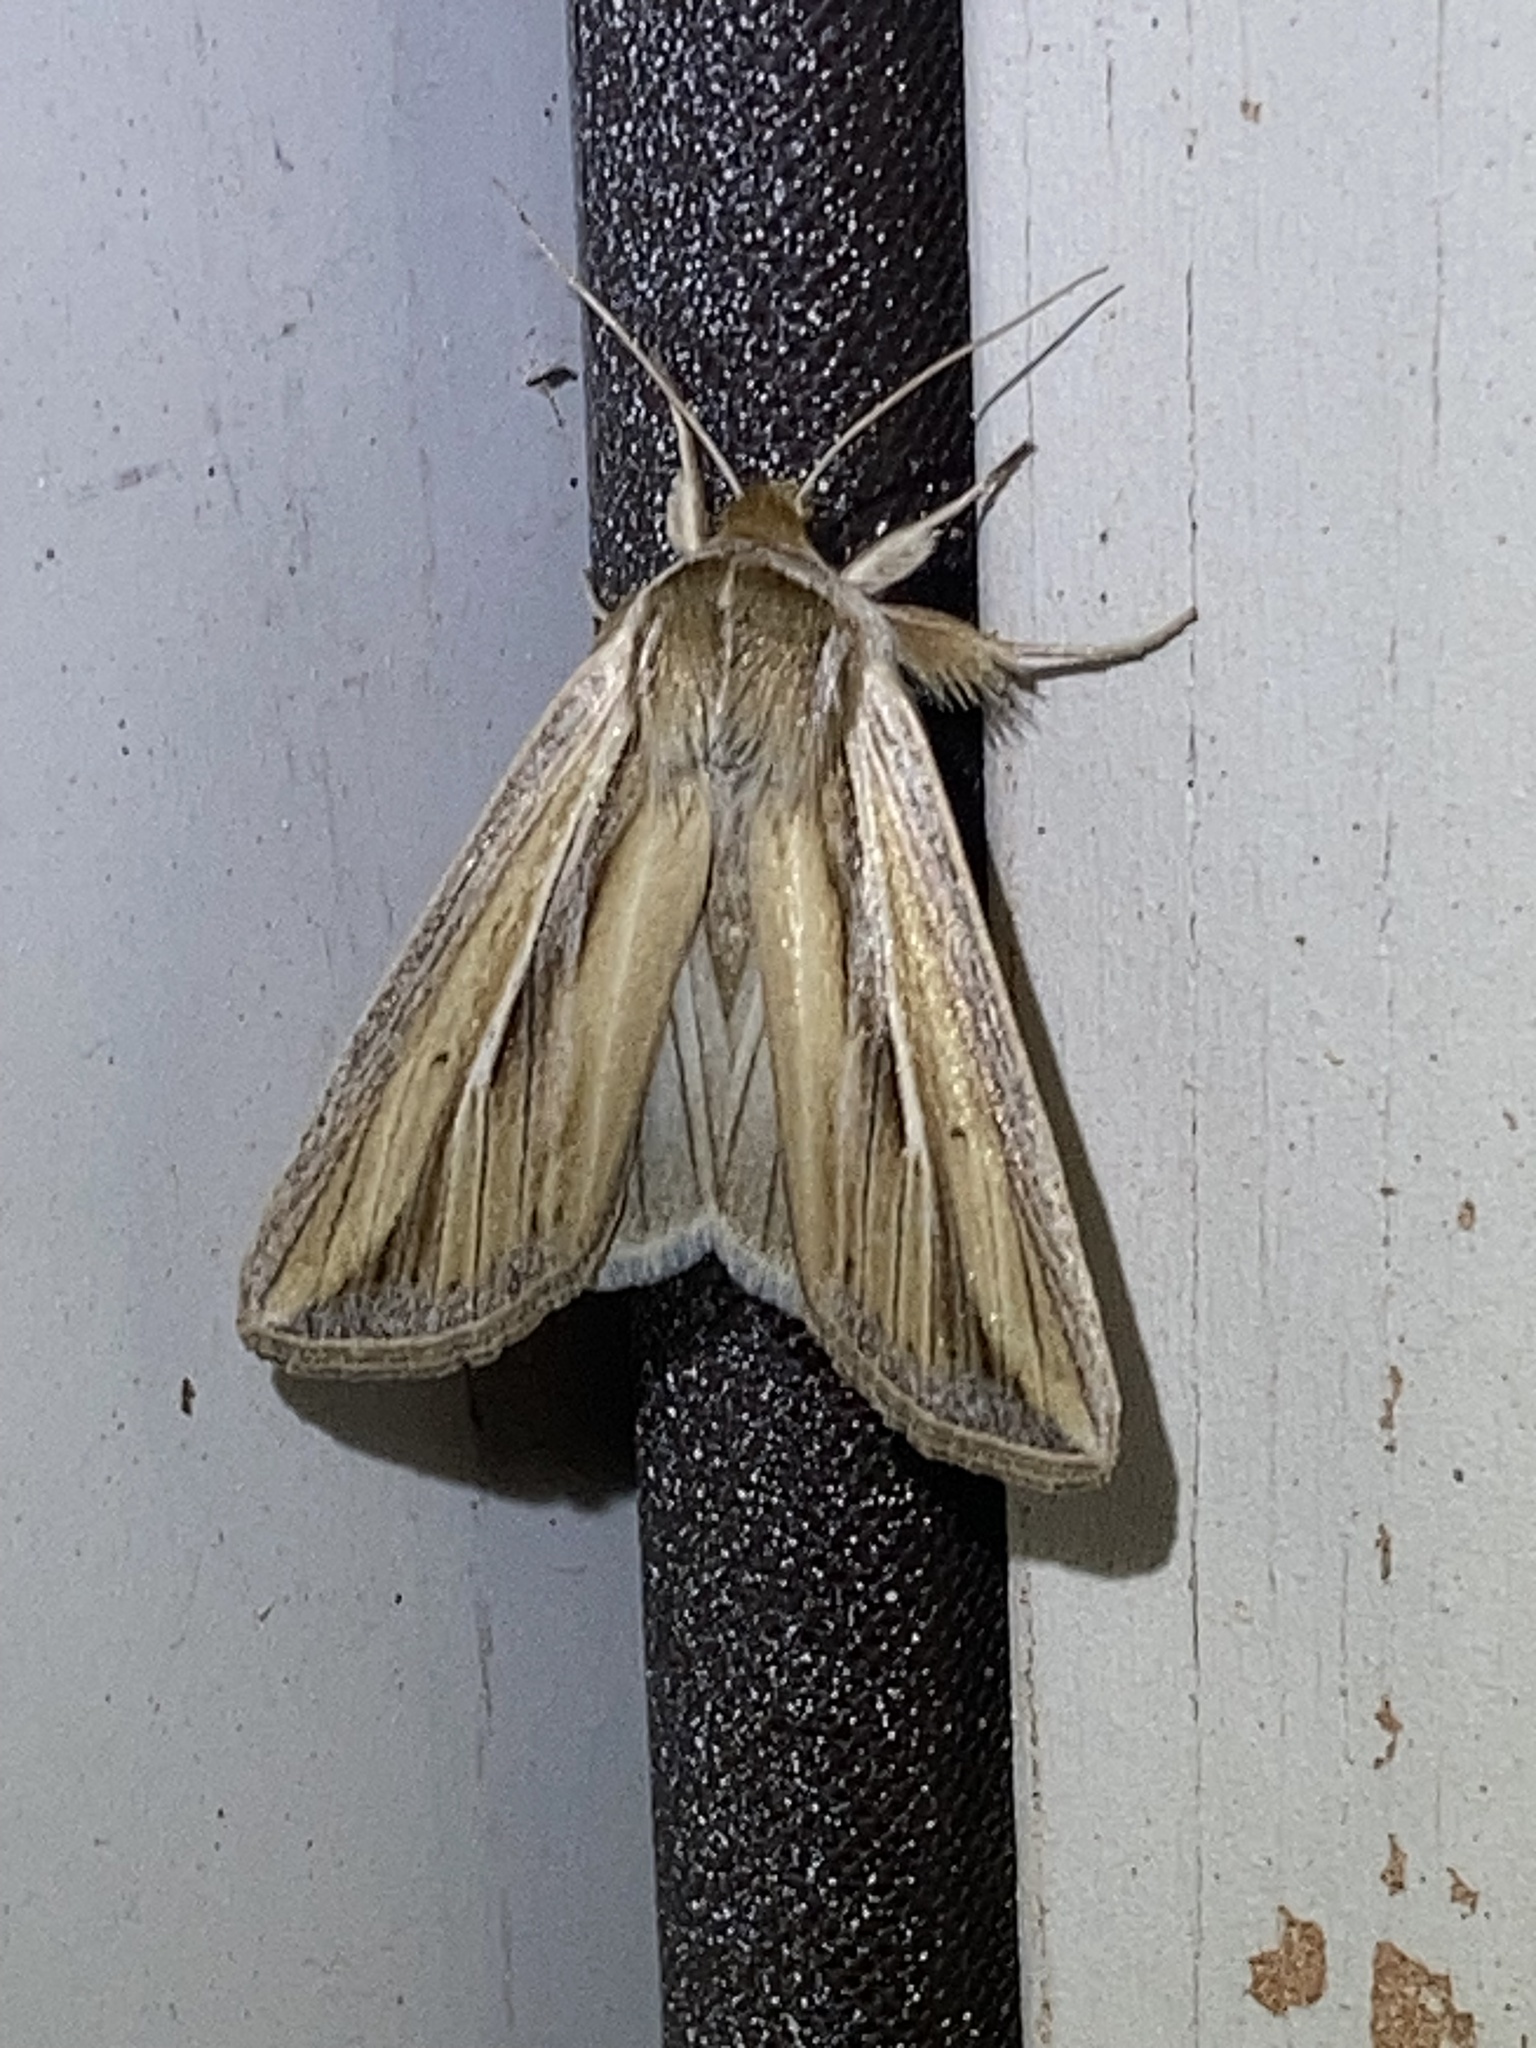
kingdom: Animalia
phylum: Arthropoda
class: Insecta
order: Lepidoptera
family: Noctuidae
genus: Dargida
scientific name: Dargida diffusa
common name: Wheat head armyworm
